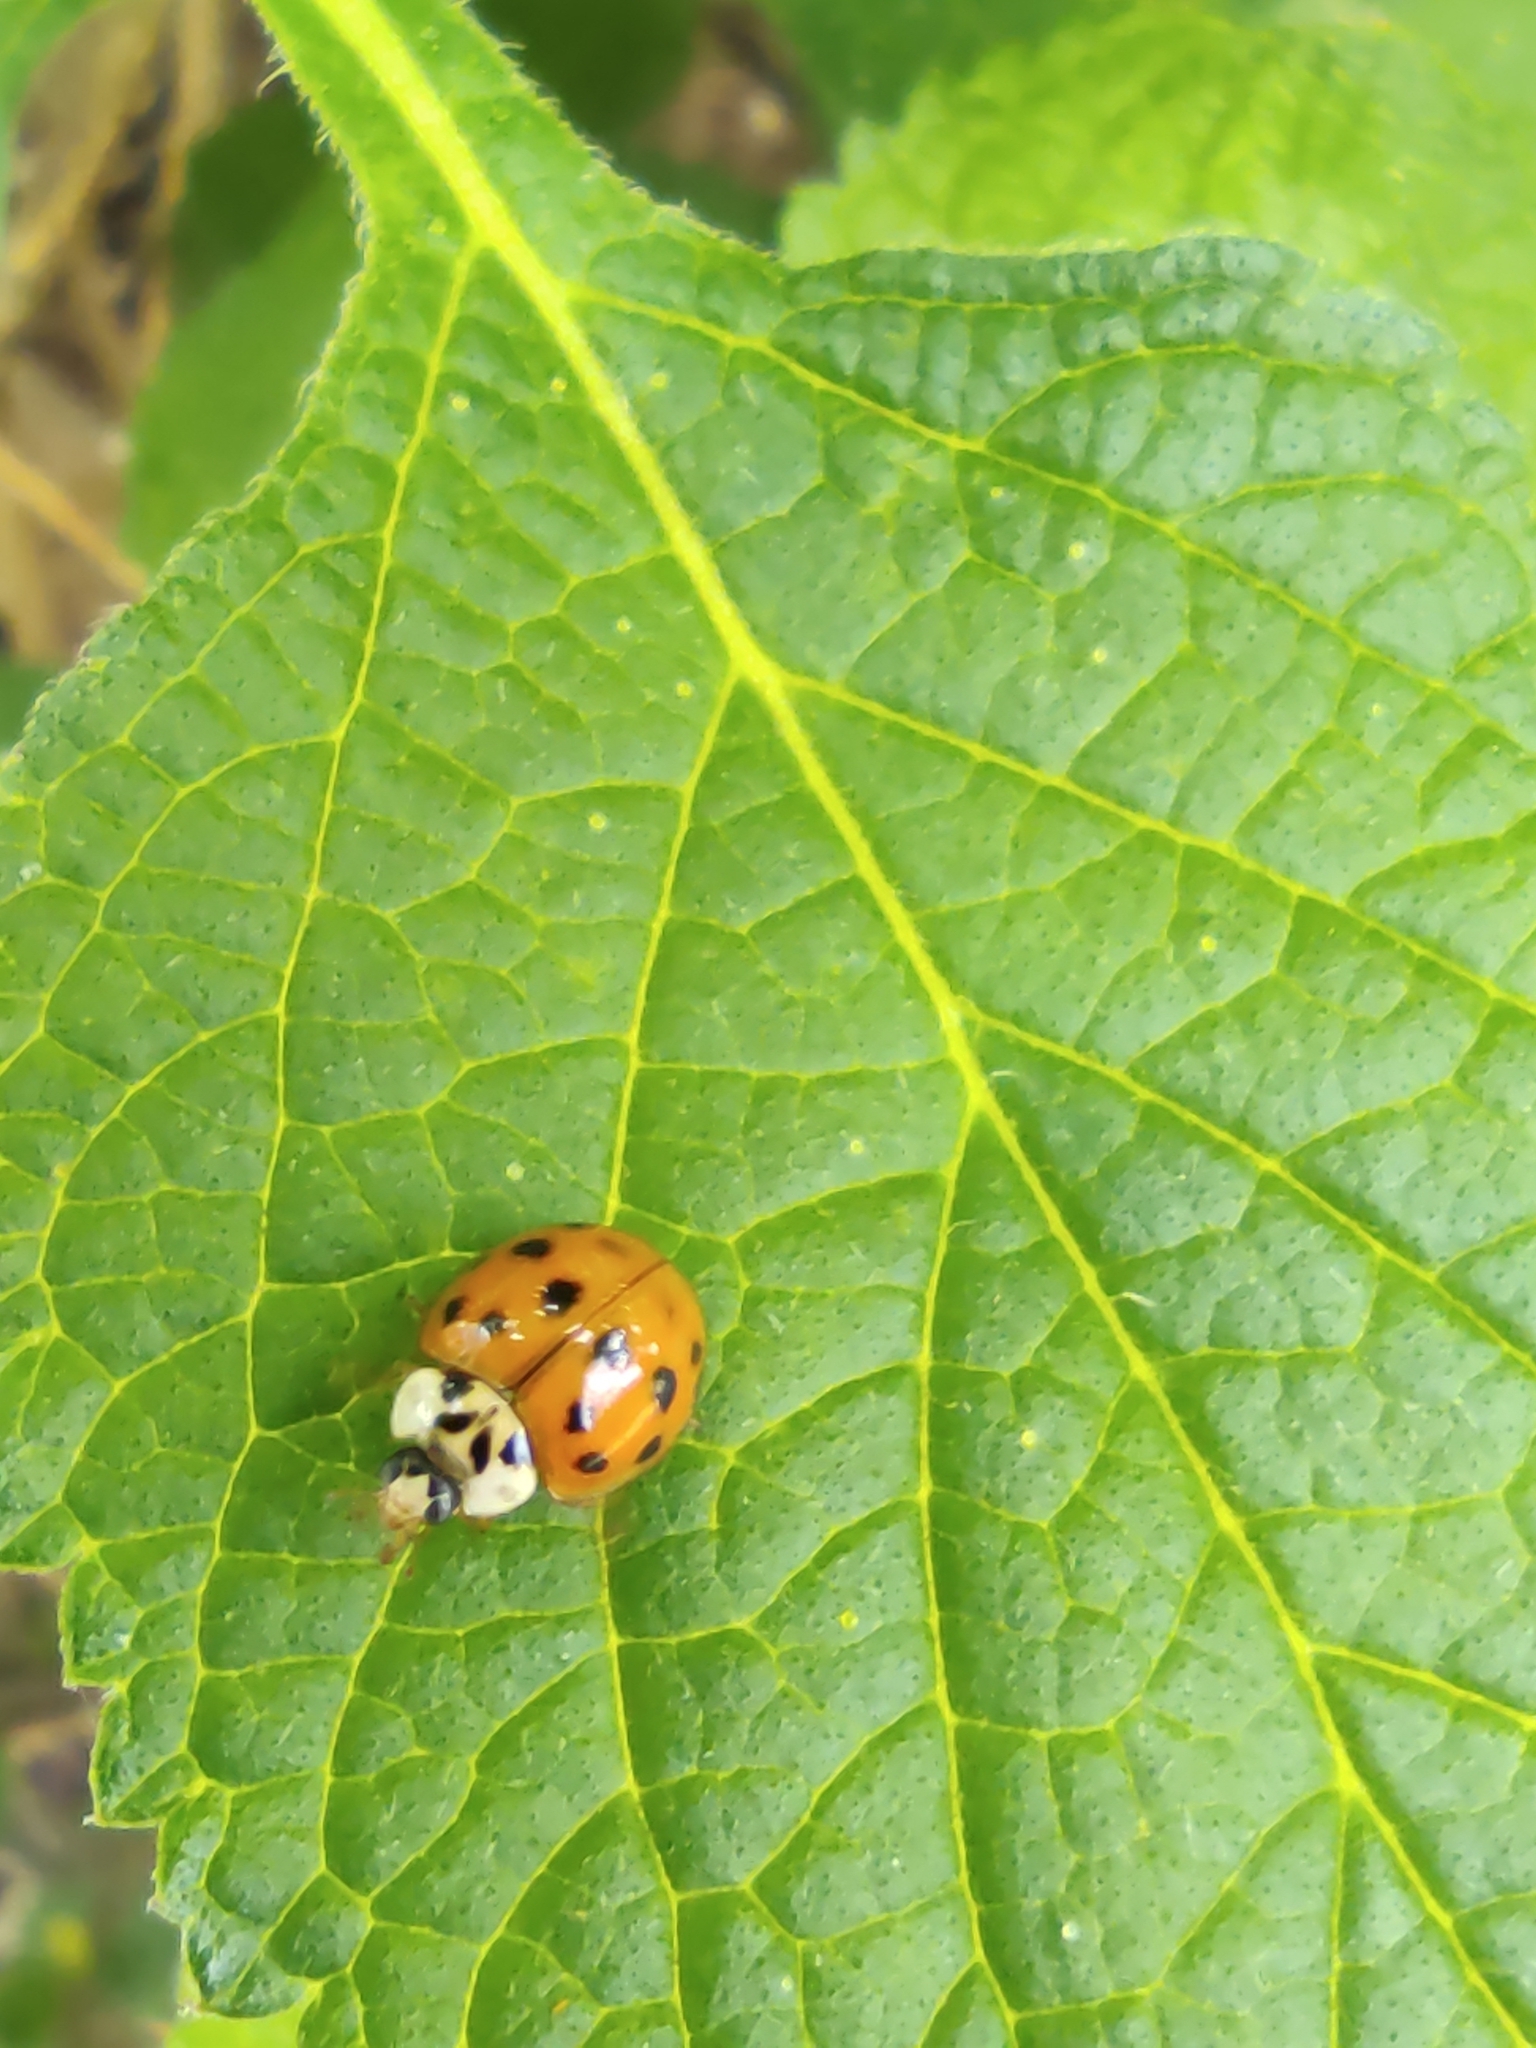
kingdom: Animalia
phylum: Arthropoda
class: Insecta
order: Coleoptera
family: Coccinellidae
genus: Harmonia
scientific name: Harmonia axyridis
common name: Harlequin ladybird
